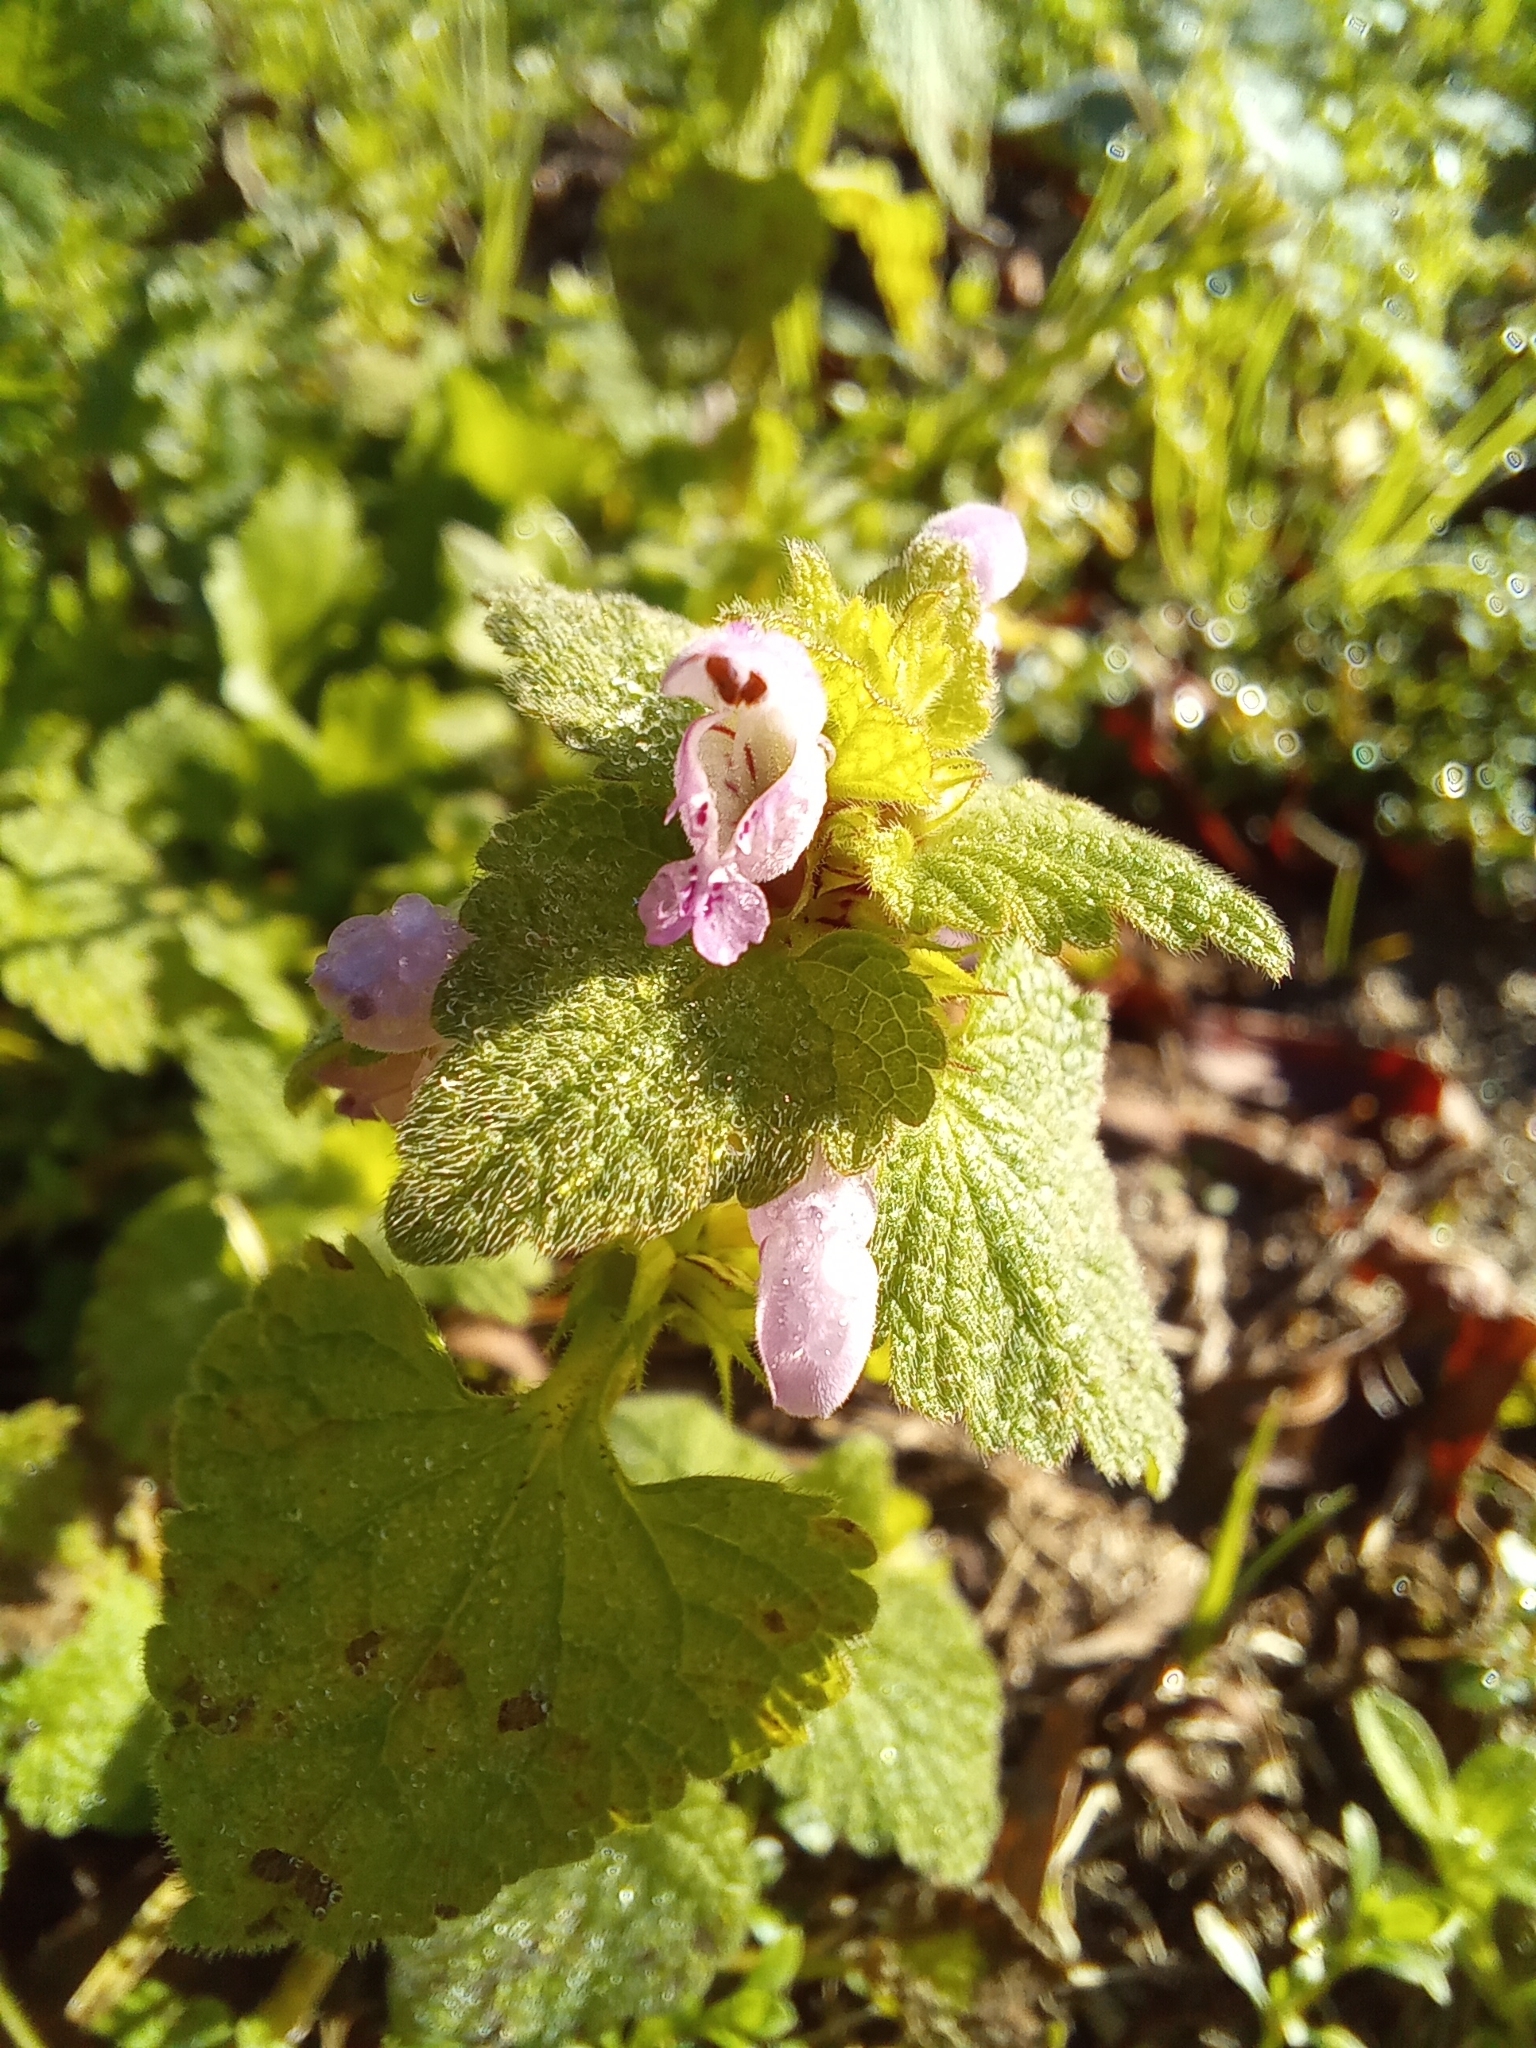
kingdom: Plantae
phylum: Tracheophyta
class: Magnoliopsida
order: Lamiales
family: Lamiaceae
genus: Lamium
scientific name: Lamium purpureum
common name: Red dead-nettle
